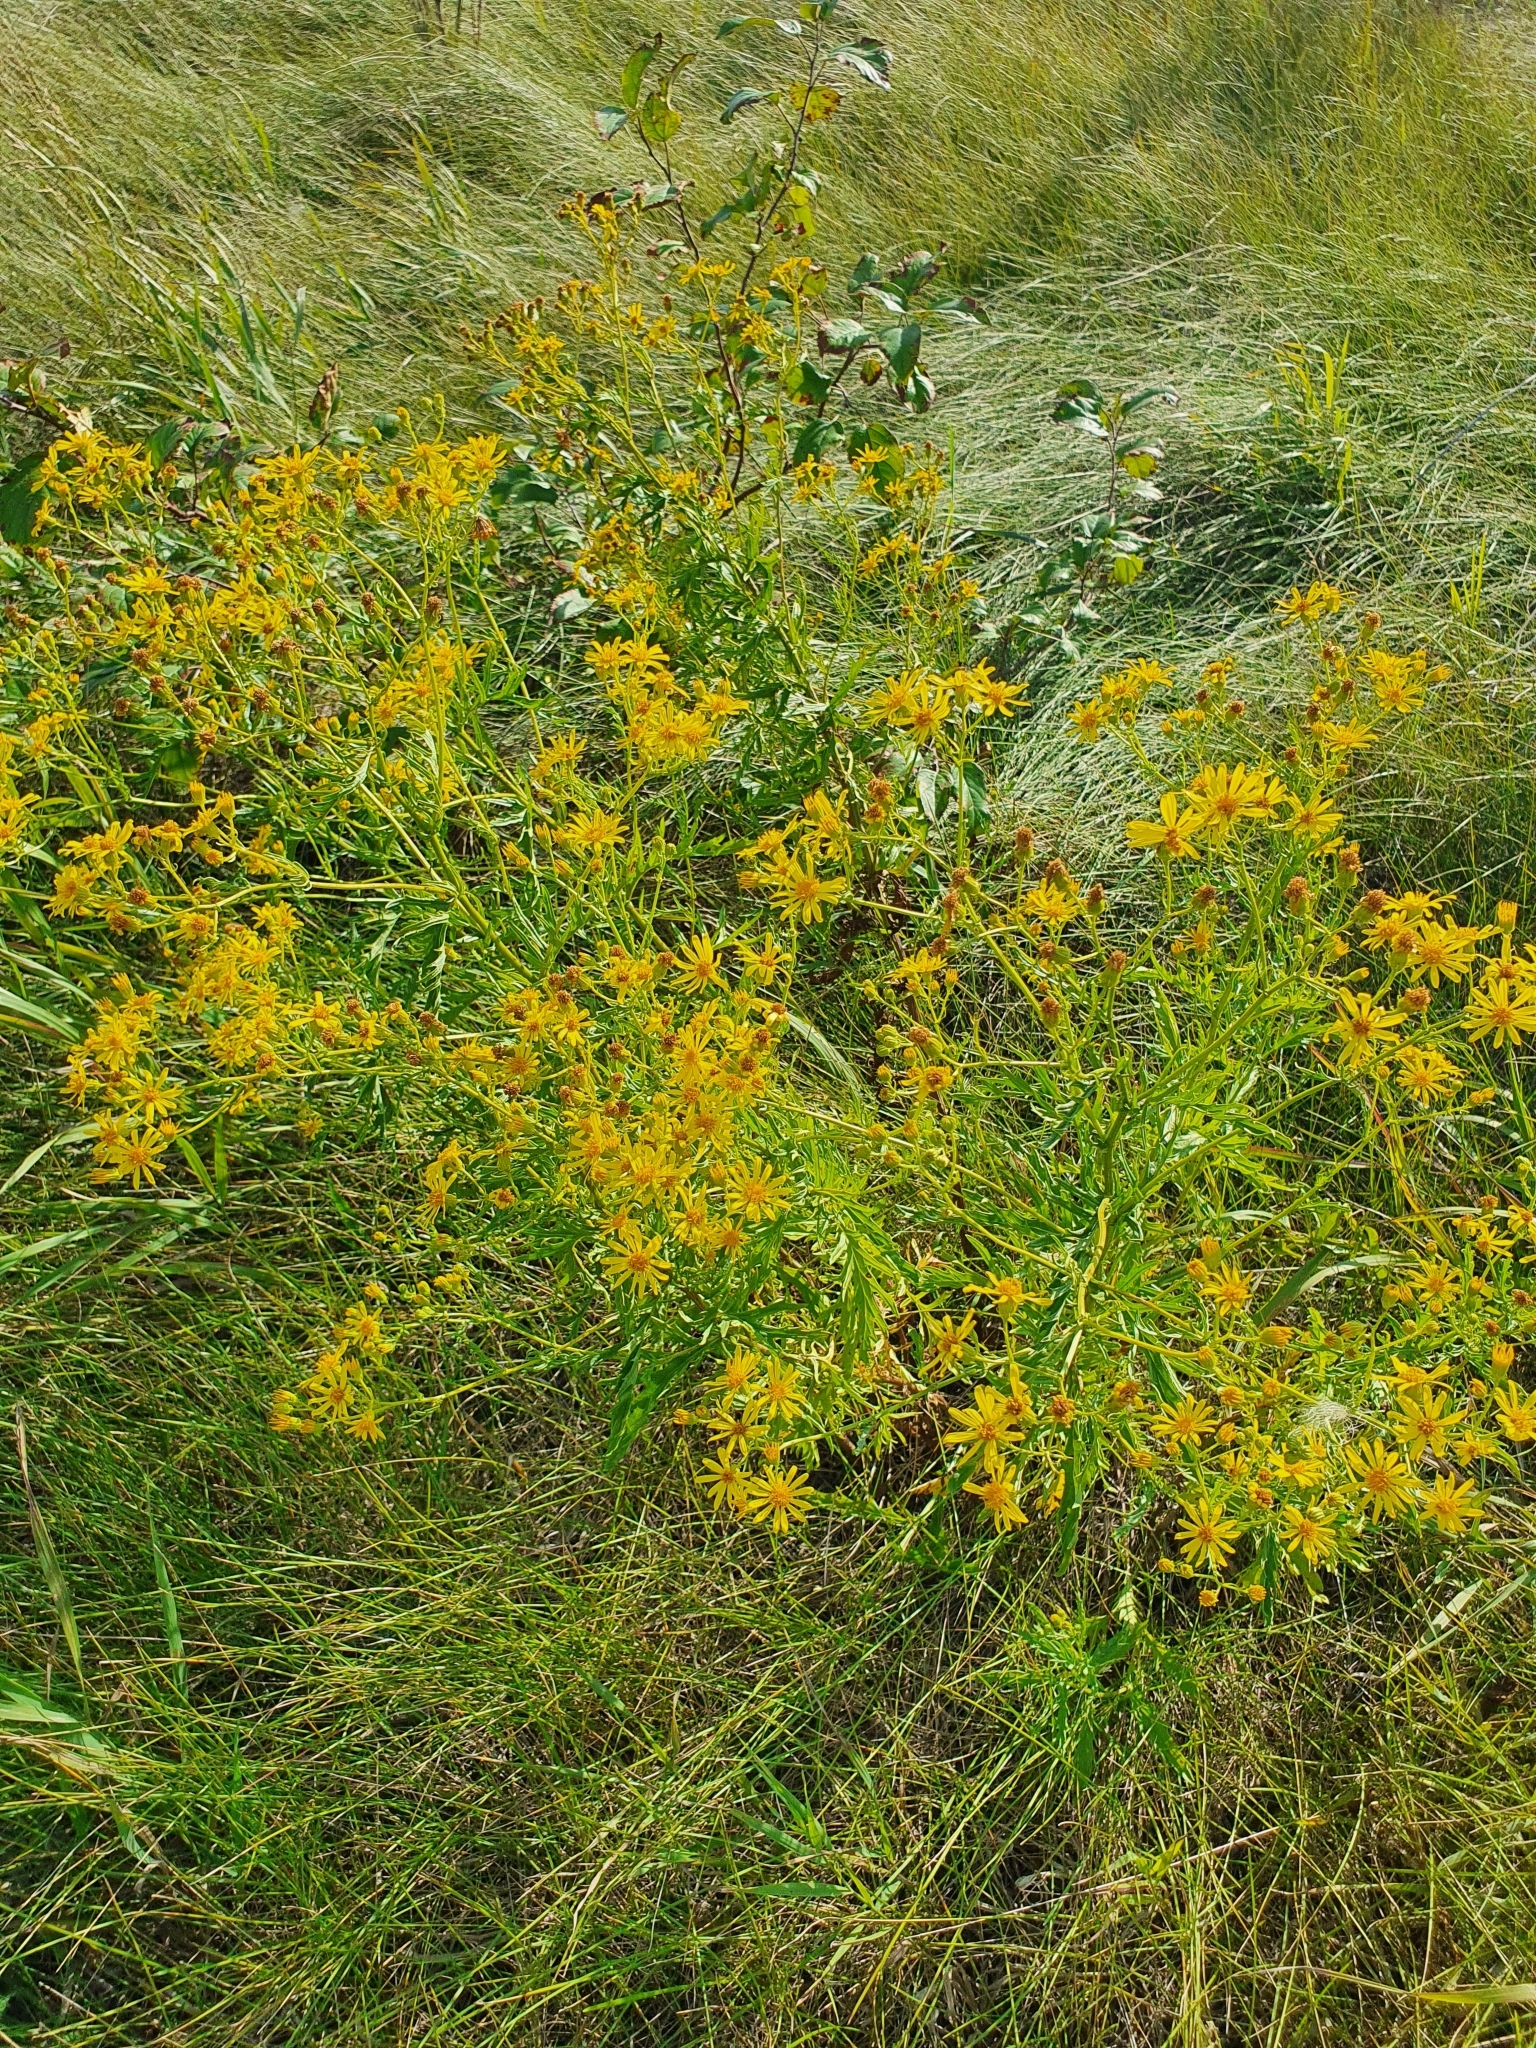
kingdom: Plantae
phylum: Tracheophyta
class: Magnoliopsida
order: Asterales
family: Asteraceae
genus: Jacobaea
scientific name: Jacobaea erucifolia
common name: Hoary ragwort
